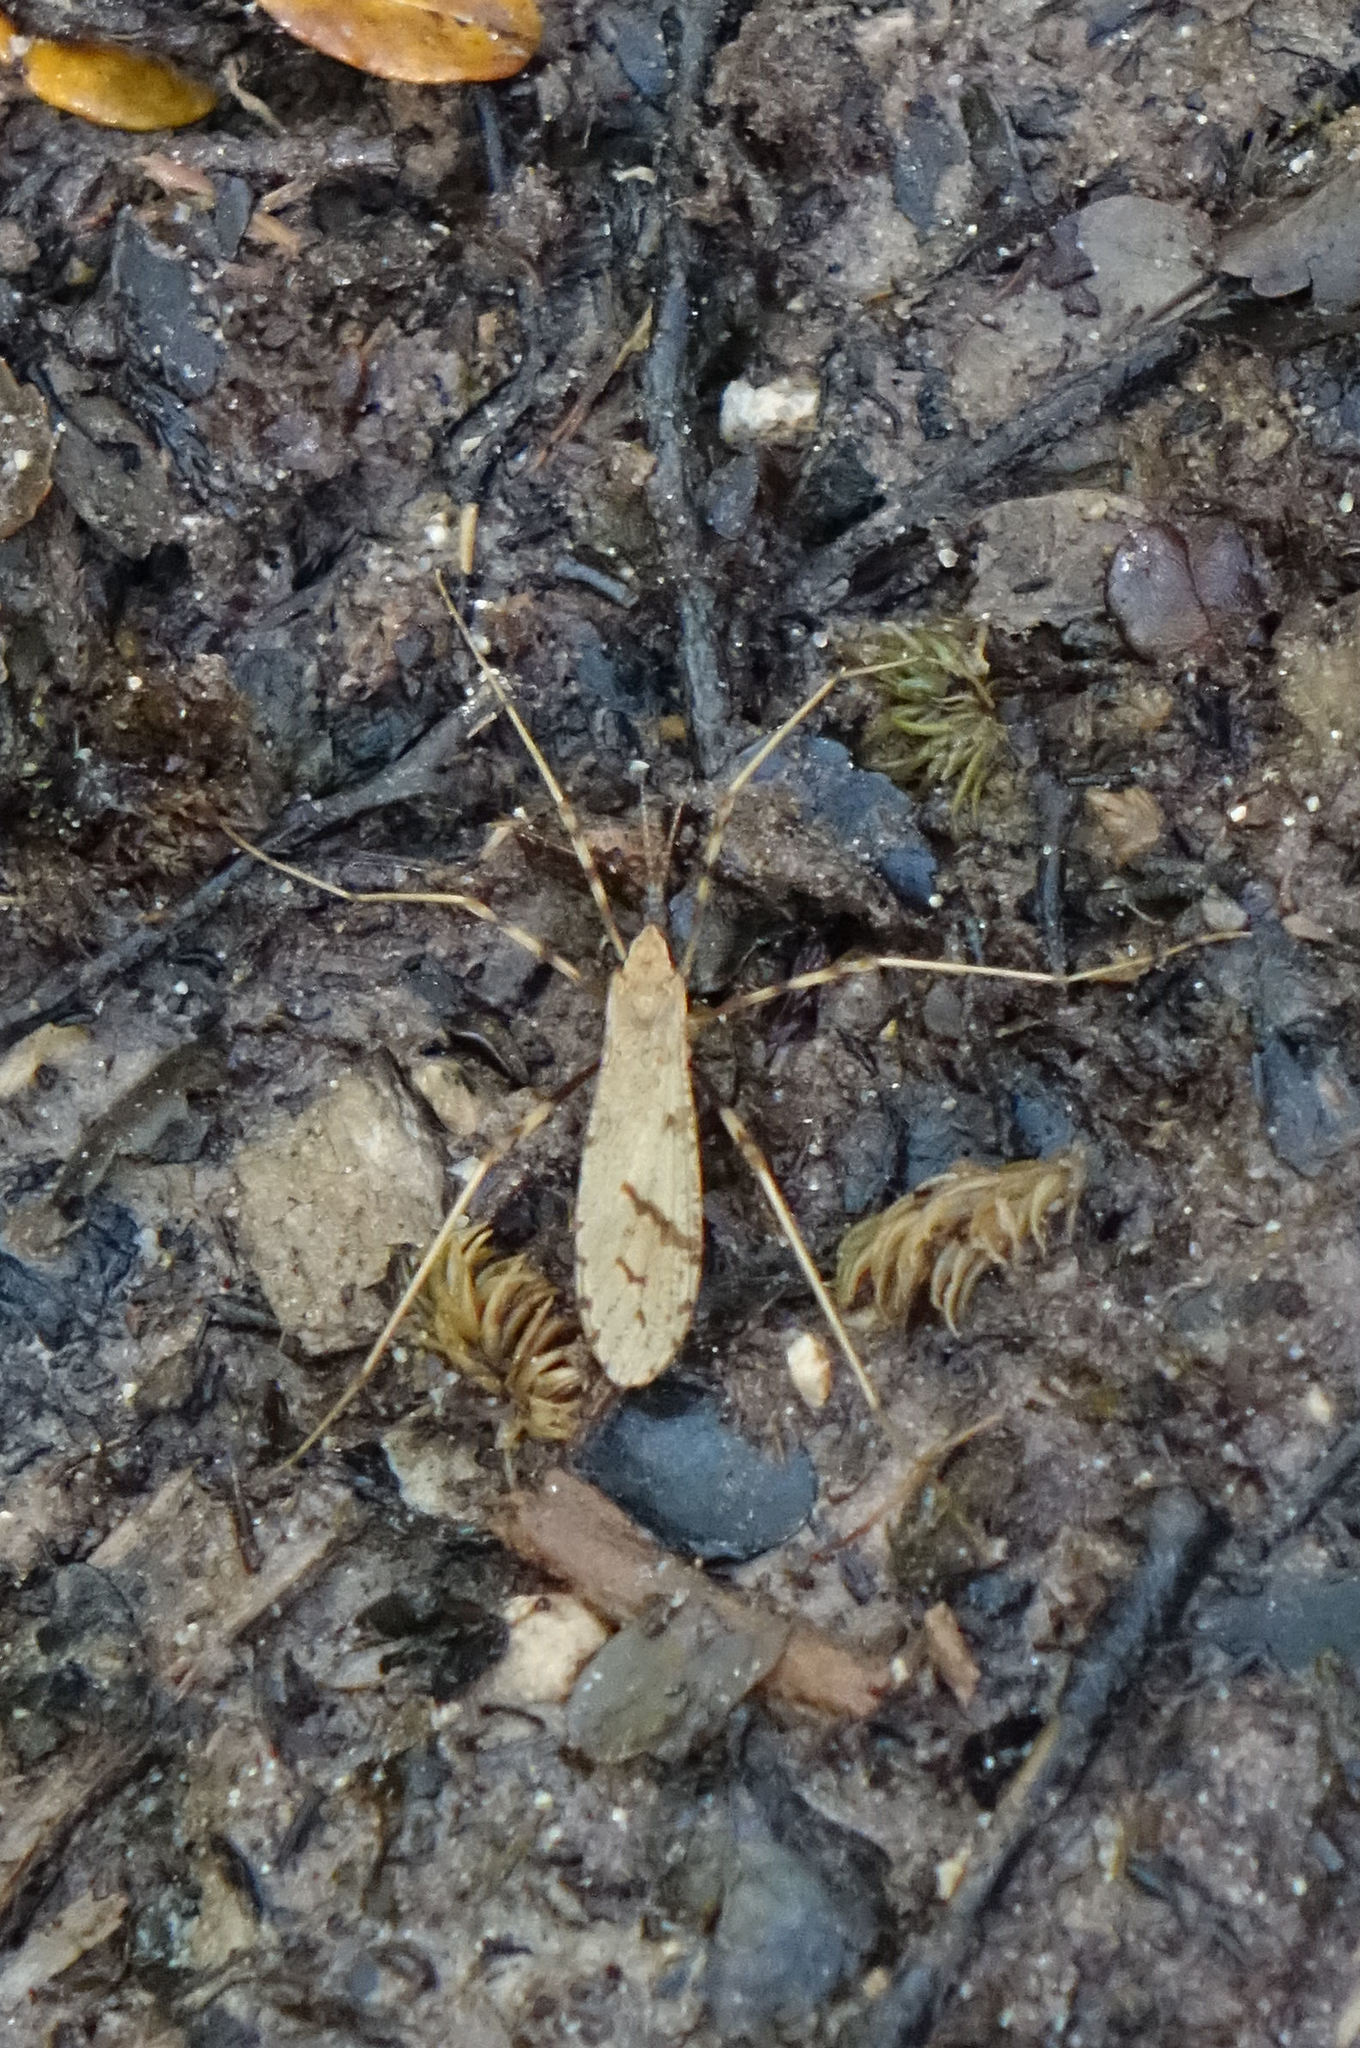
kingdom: Animalia
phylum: Arthropoda
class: Insecta
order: Diptera
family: Limoniidae
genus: Rhamphophila
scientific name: Rhamphophila sinistra
